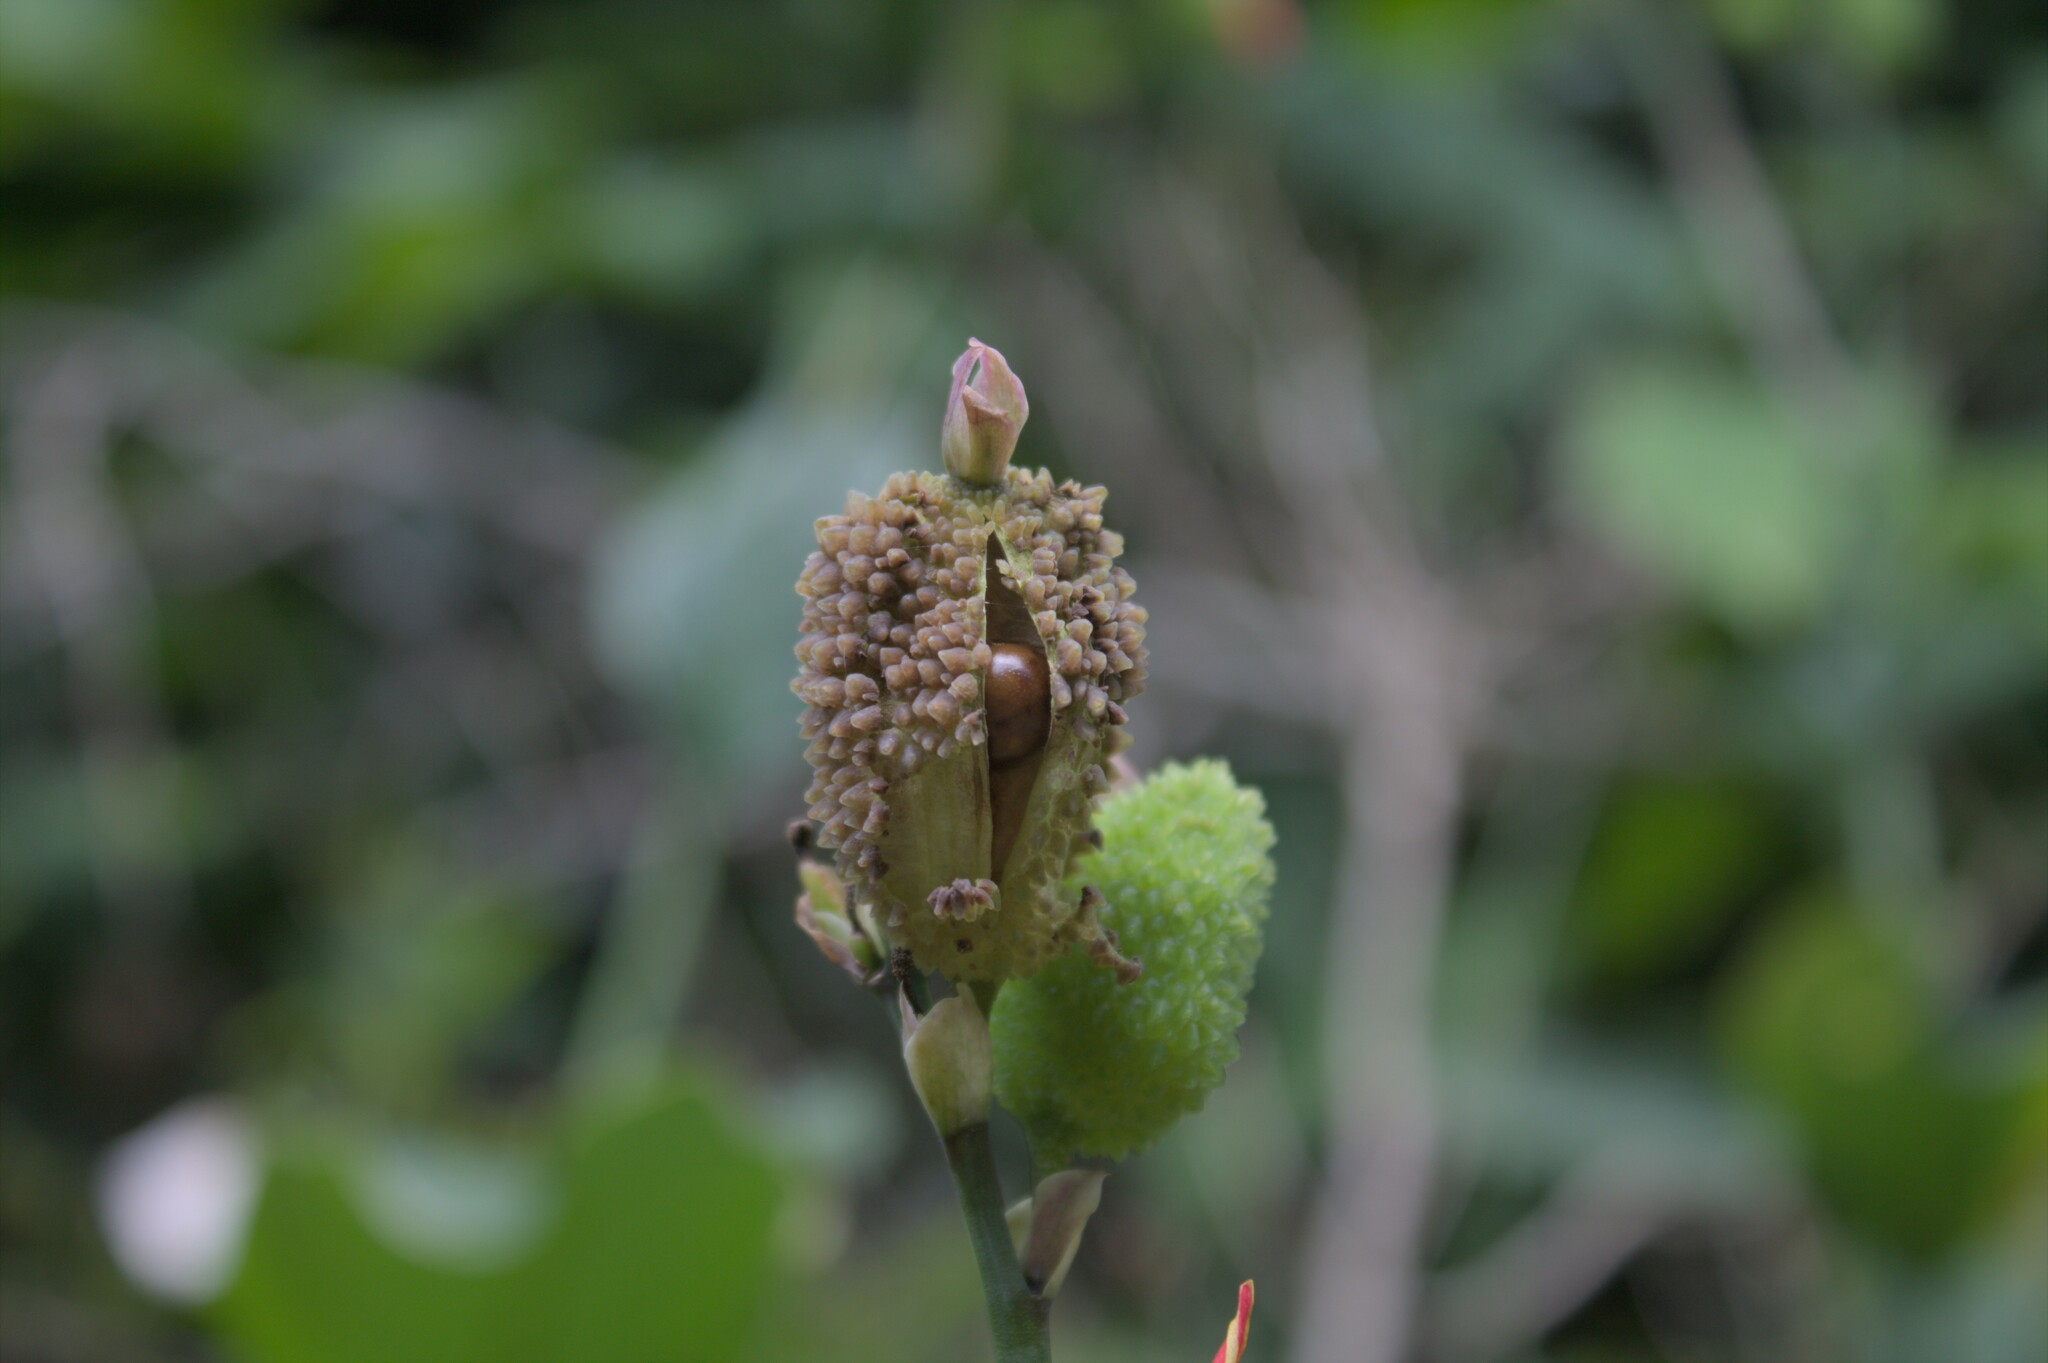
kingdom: Plantae
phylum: Tracheophyta
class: Liliopsida
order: Zingiberales
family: Cannaceae
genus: Canna
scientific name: Canna indica
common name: Indian shot
